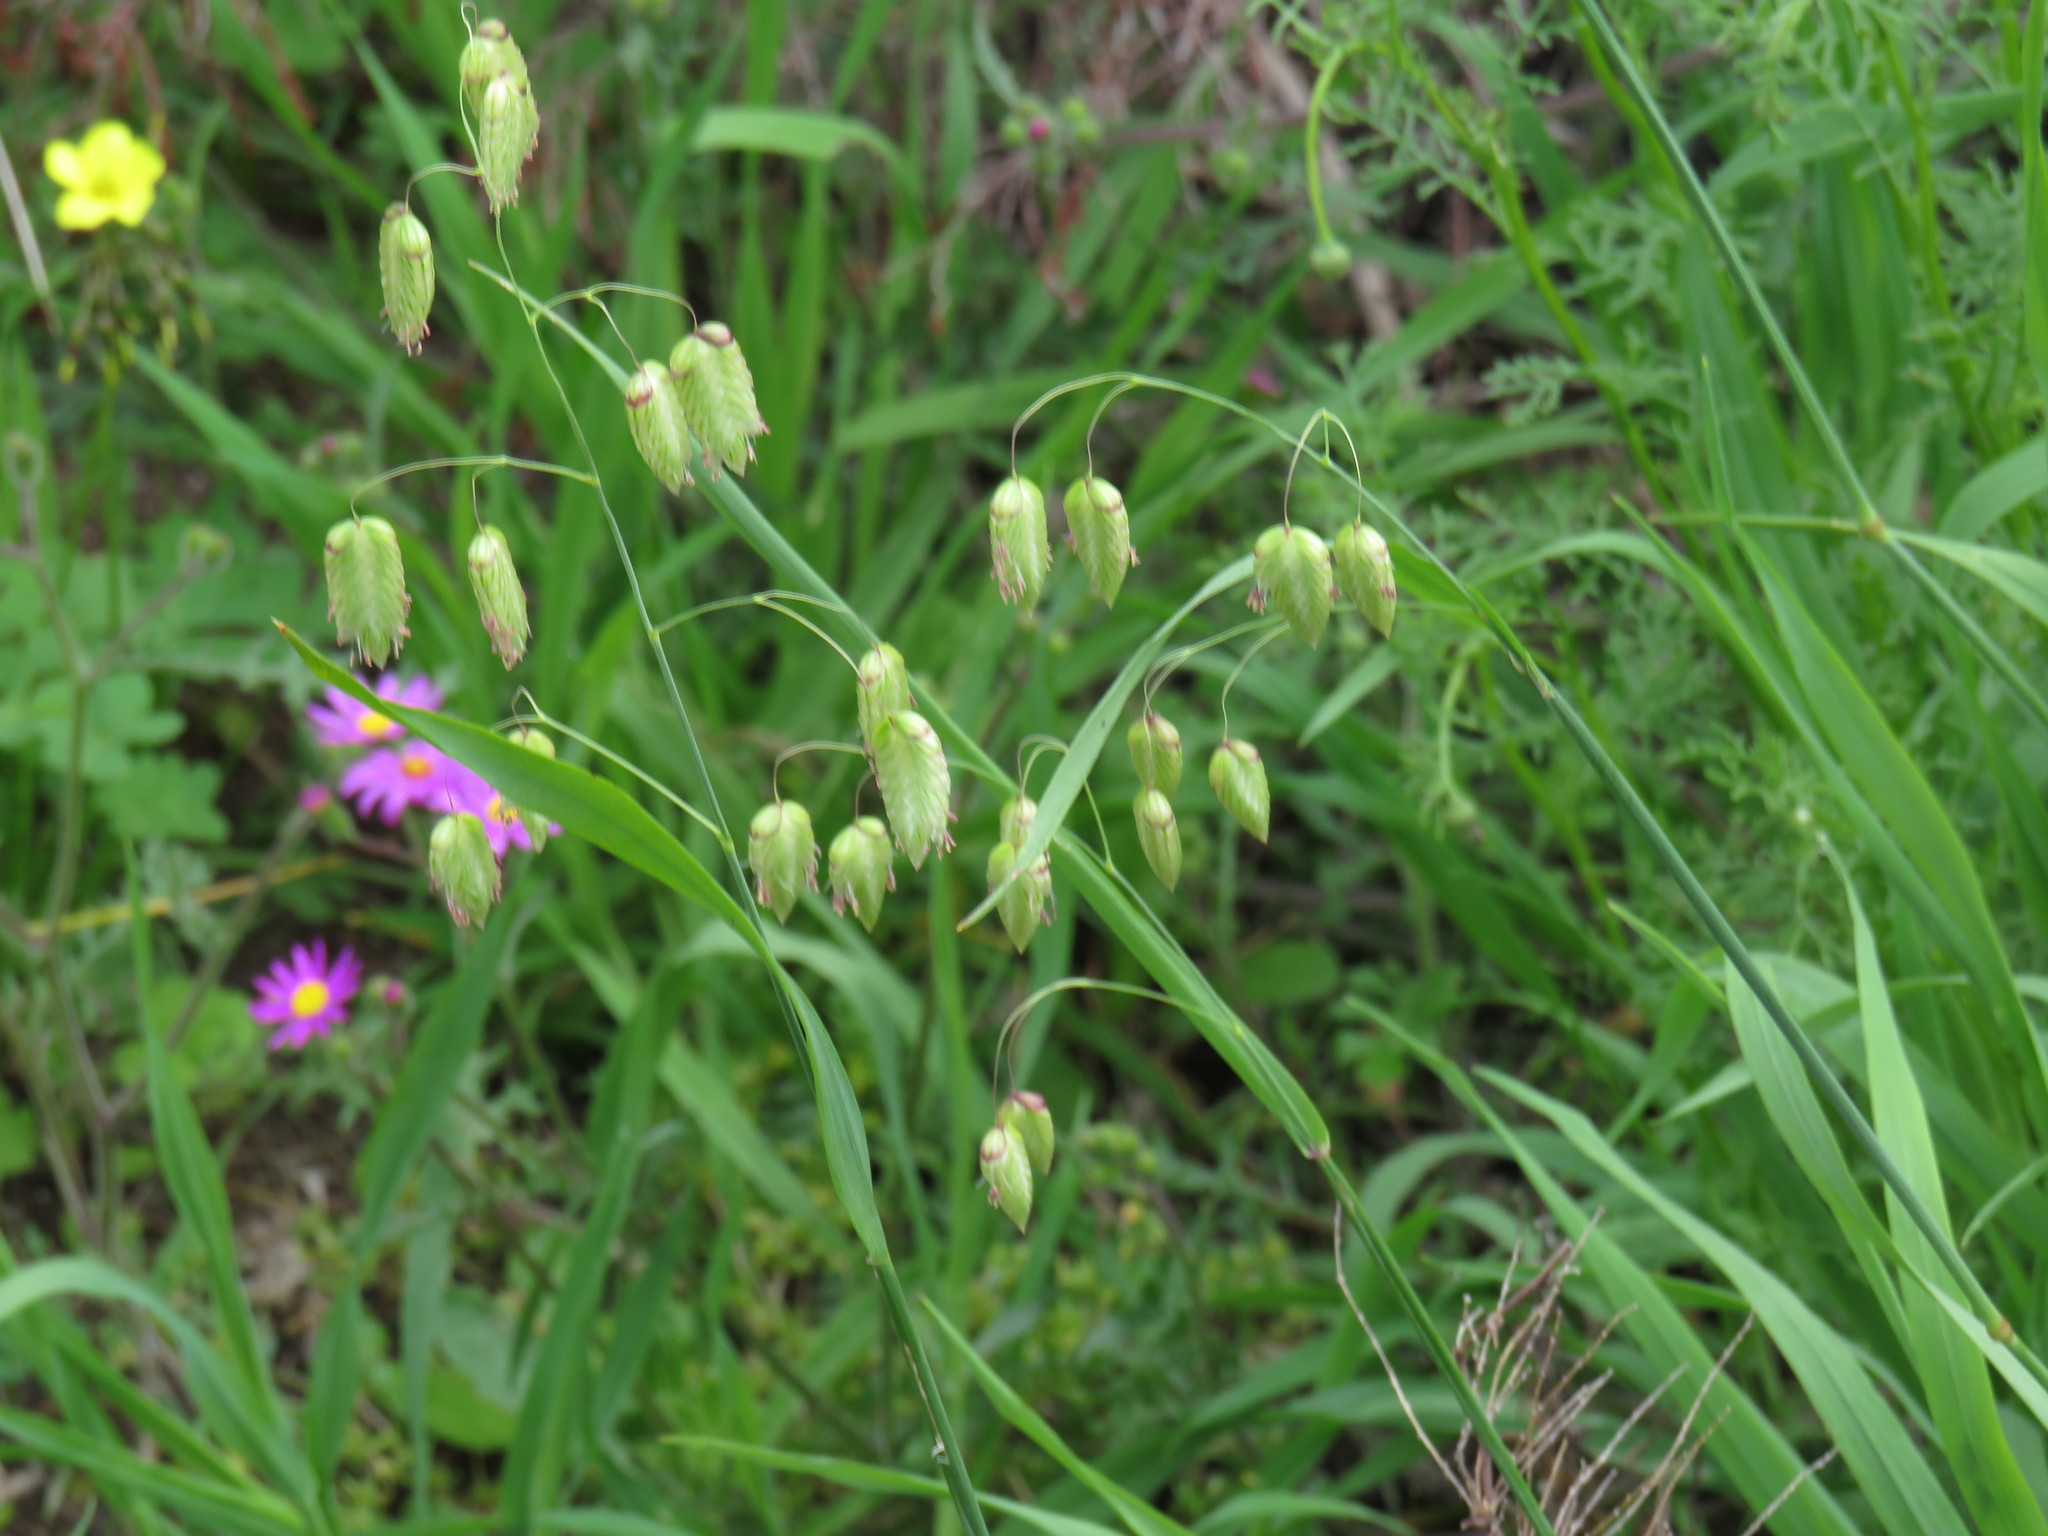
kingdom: Plantae
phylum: Tracheophyta
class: Liliopsida
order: Poales
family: Poaceae
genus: Briza
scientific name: Briza maxima
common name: Big quakinggrass
